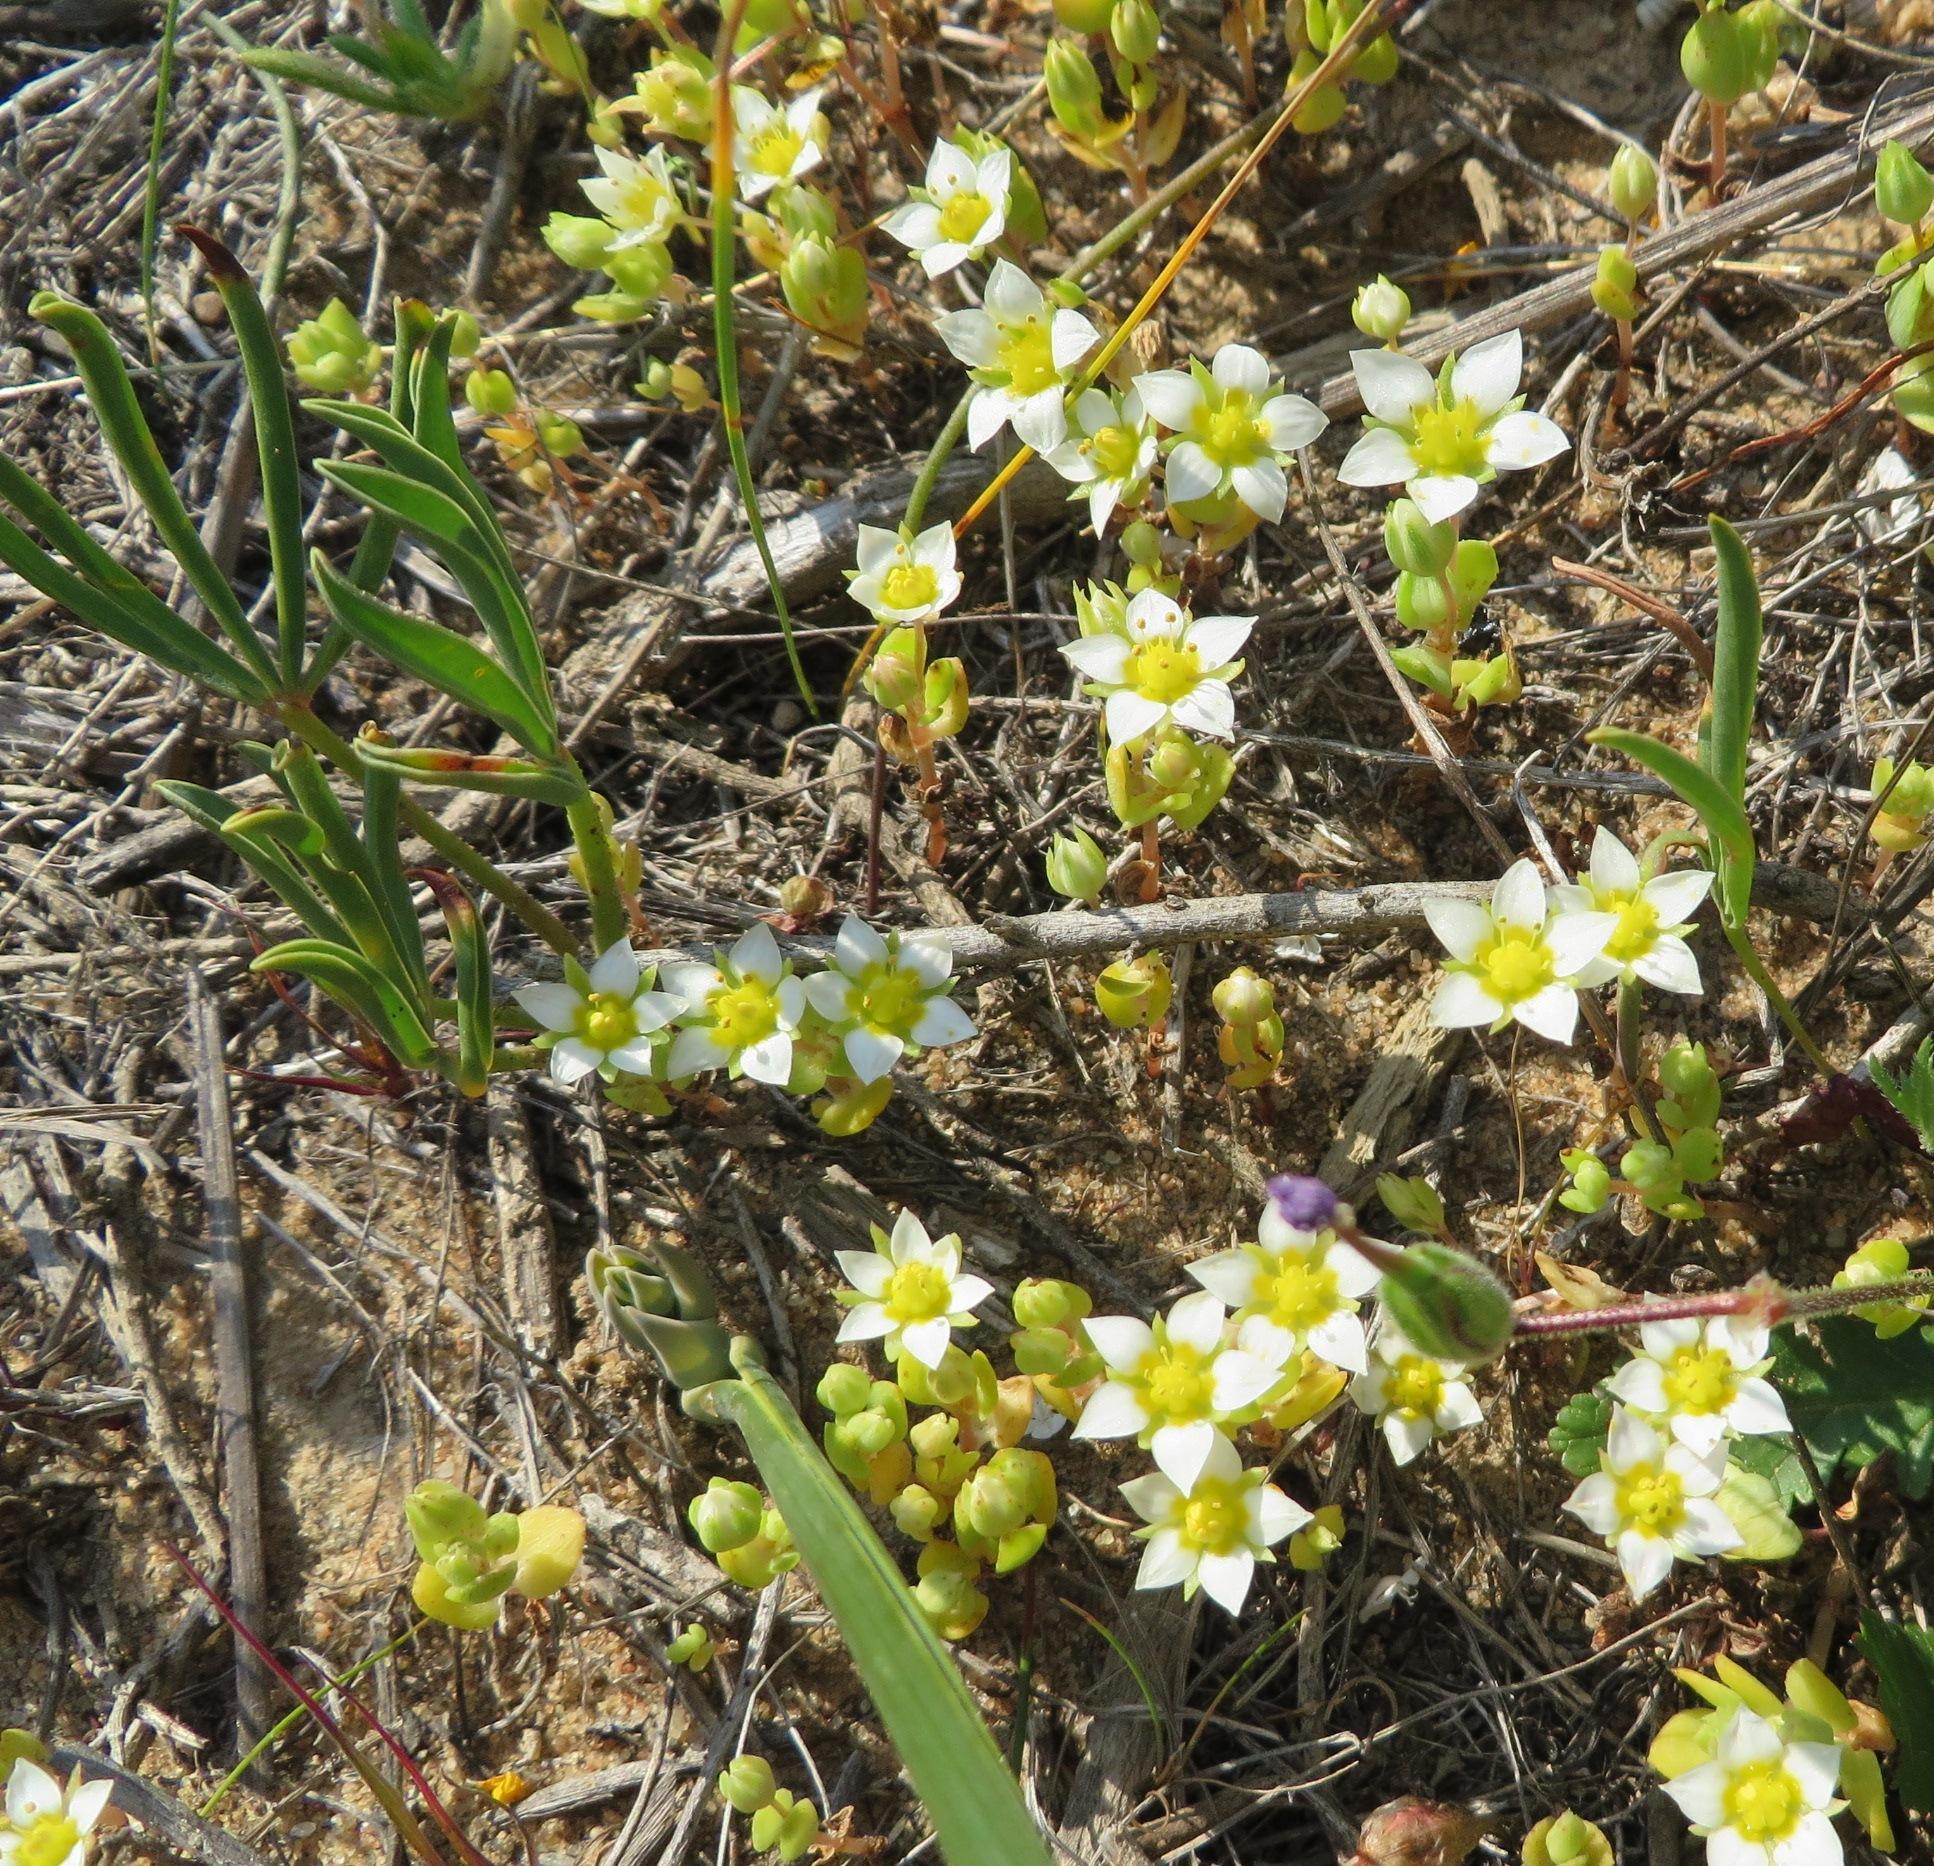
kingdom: Plantae
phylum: Tracheophyta
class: Magnoliopsida
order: Saxifragales
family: Crassulaceae
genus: Crassula
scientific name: Crassula pellucida
